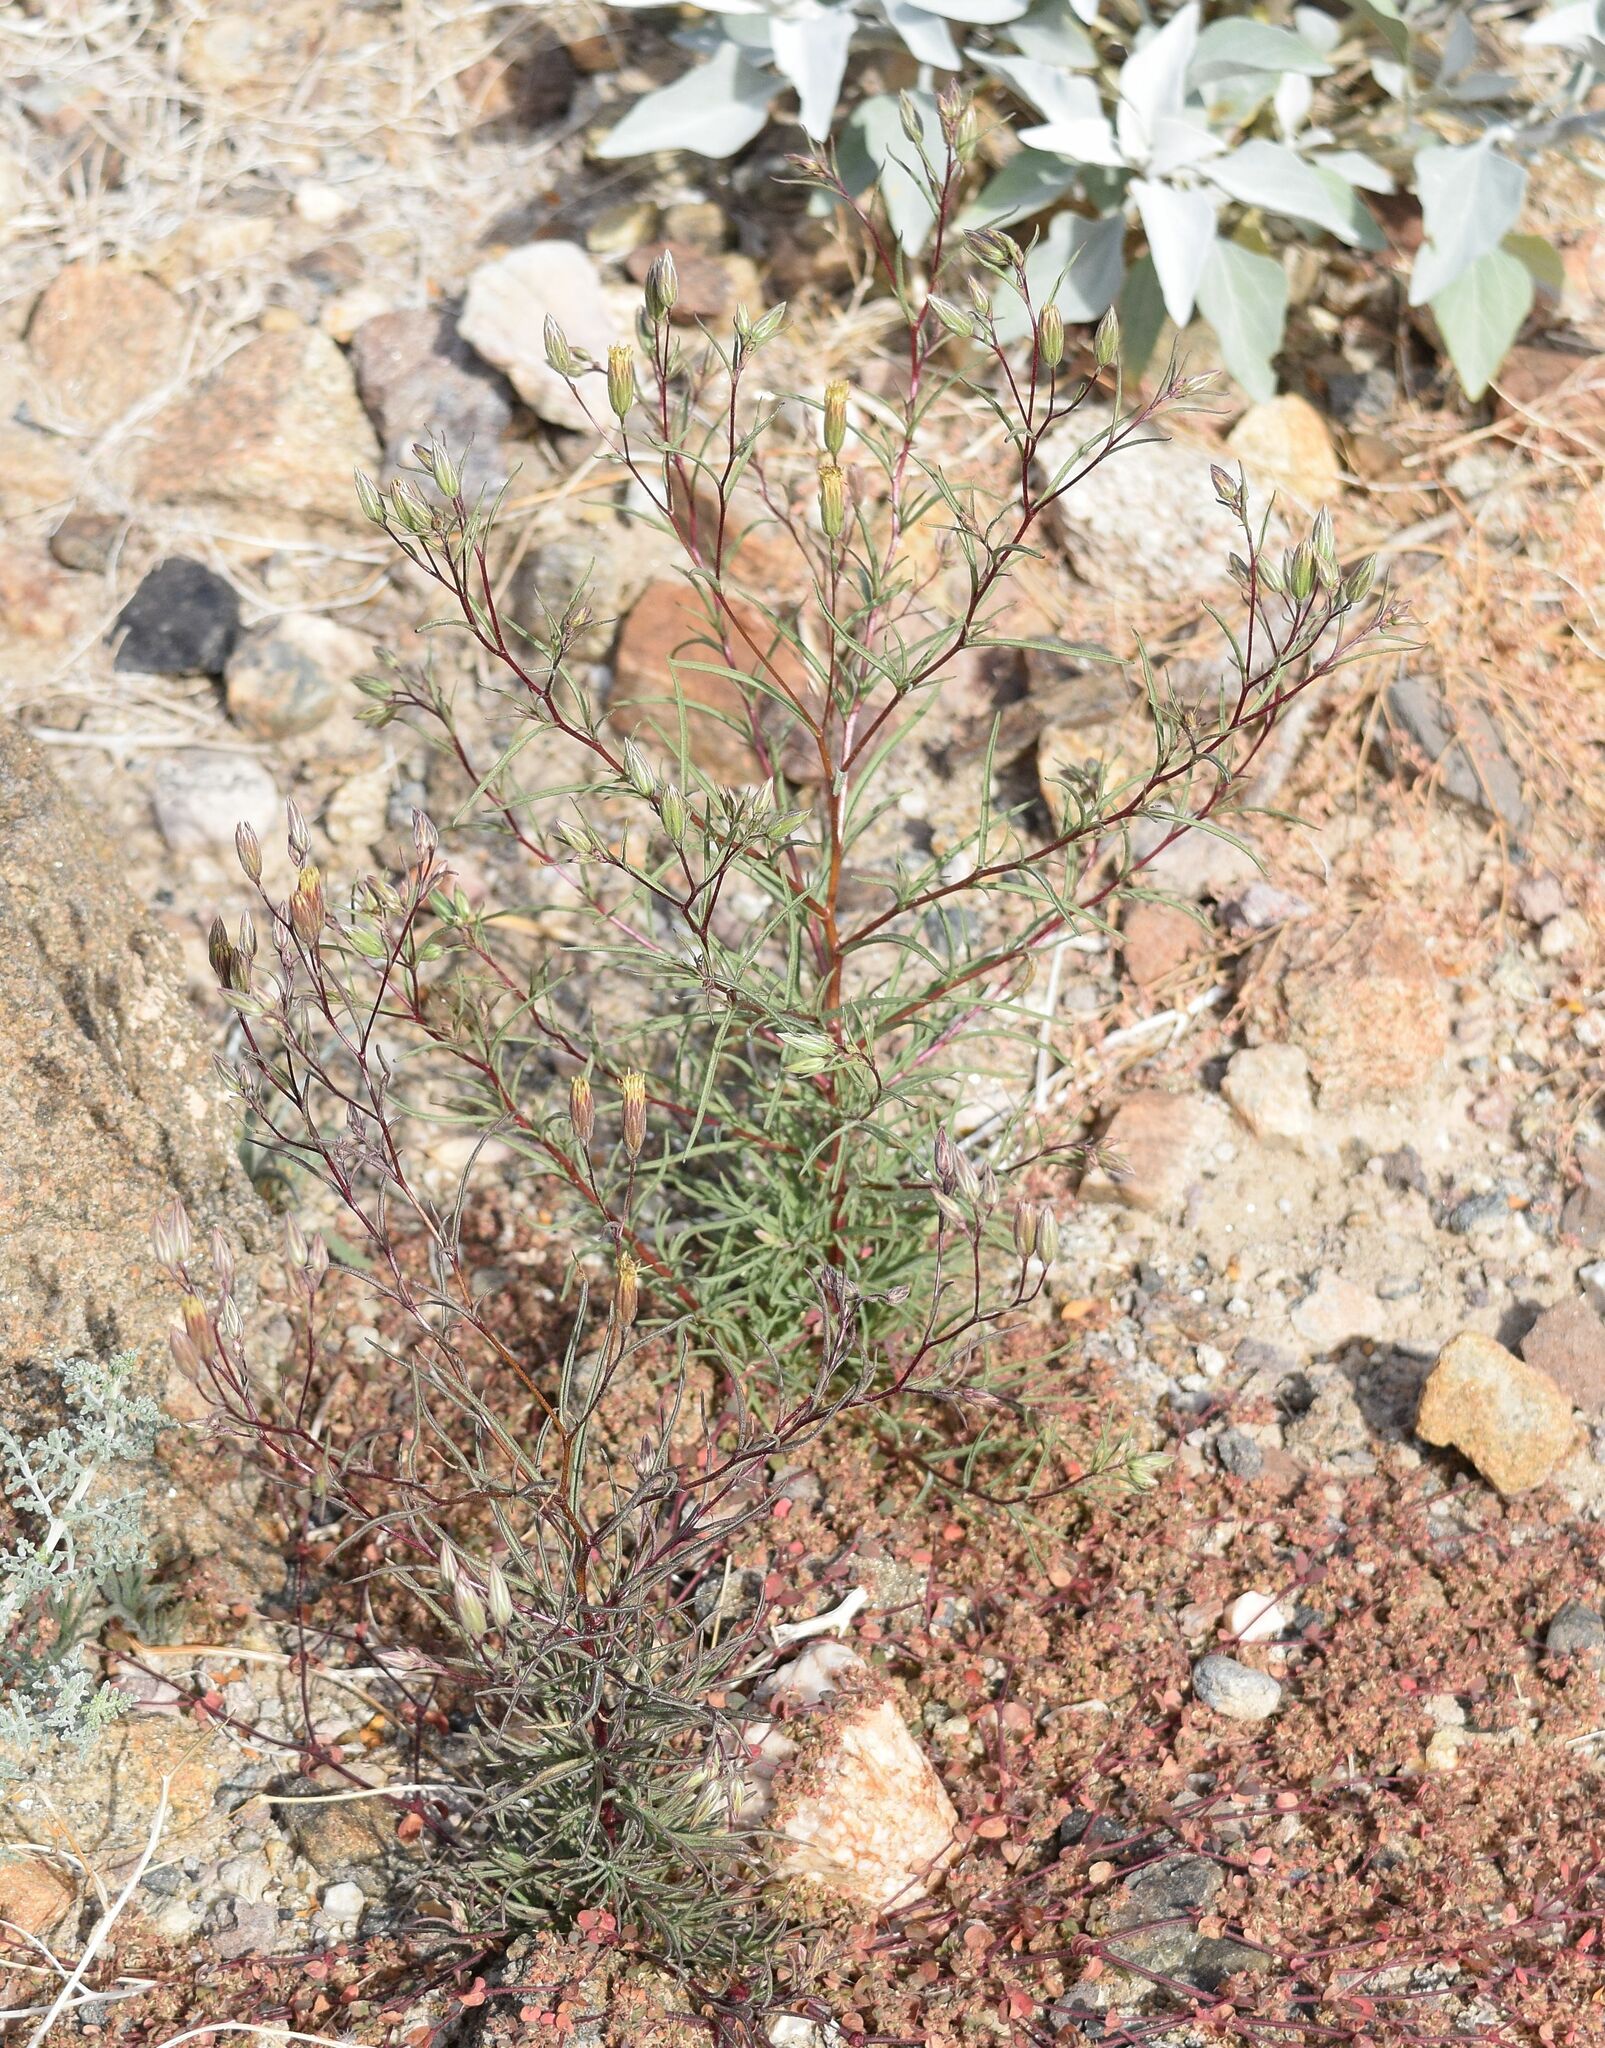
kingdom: Plantae
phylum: Tracheophyta
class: Magnoliopsida
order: Asterales
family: Asteraceae
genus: Malperia
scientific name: Malperia tenuis
